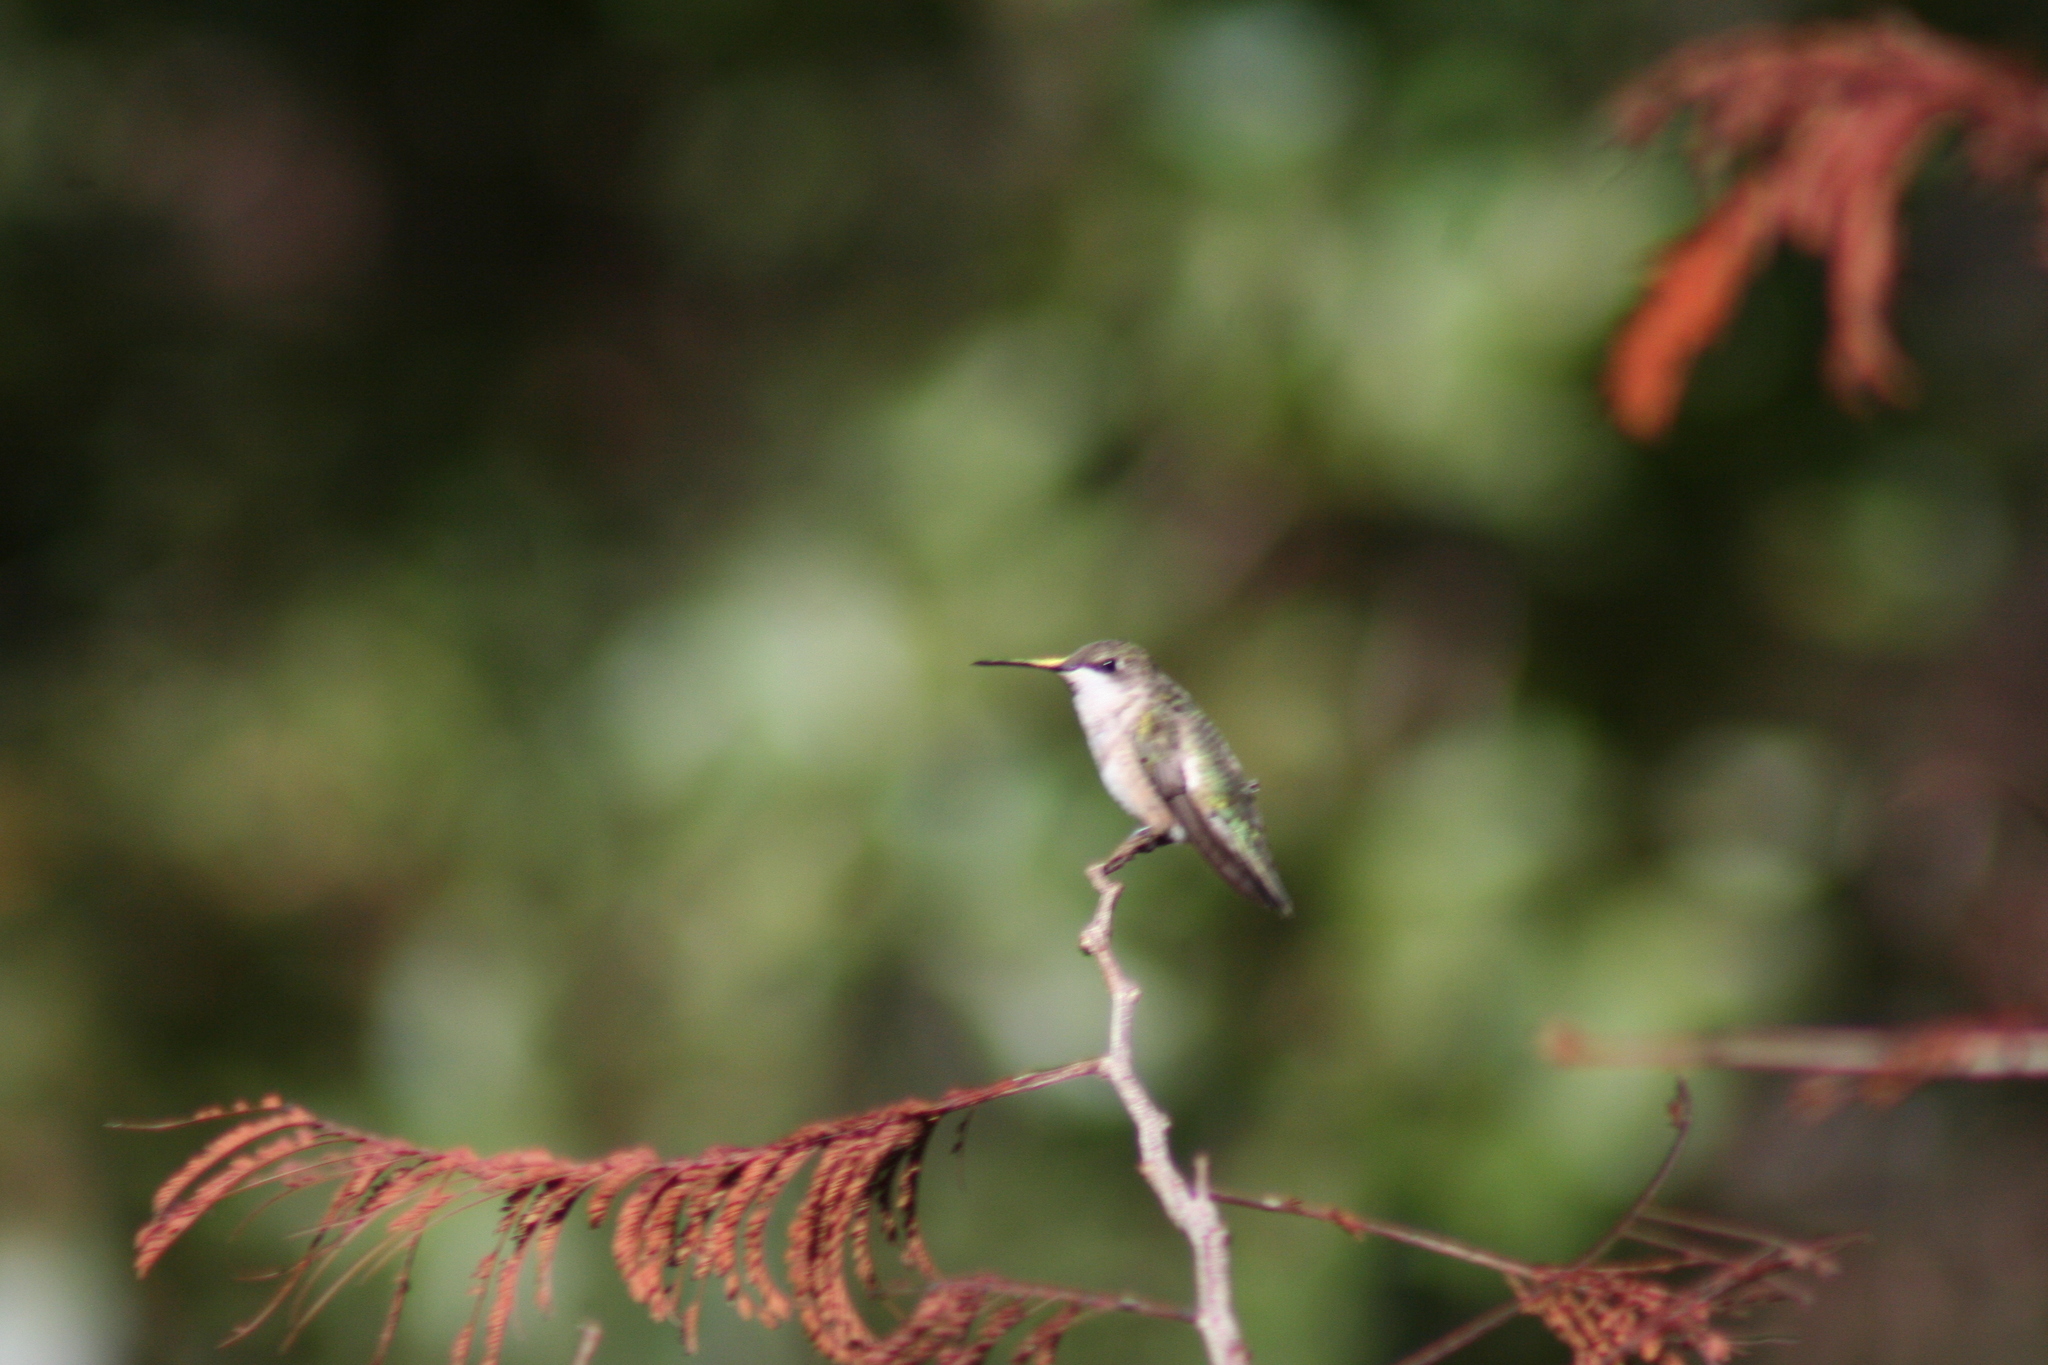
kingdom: Animalia
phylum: Chordata
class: Aves
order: Apodiformes
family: Trochilidae
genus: Archilochus
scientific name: Archilochus colubris
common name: Ruby-throated hummingbird
